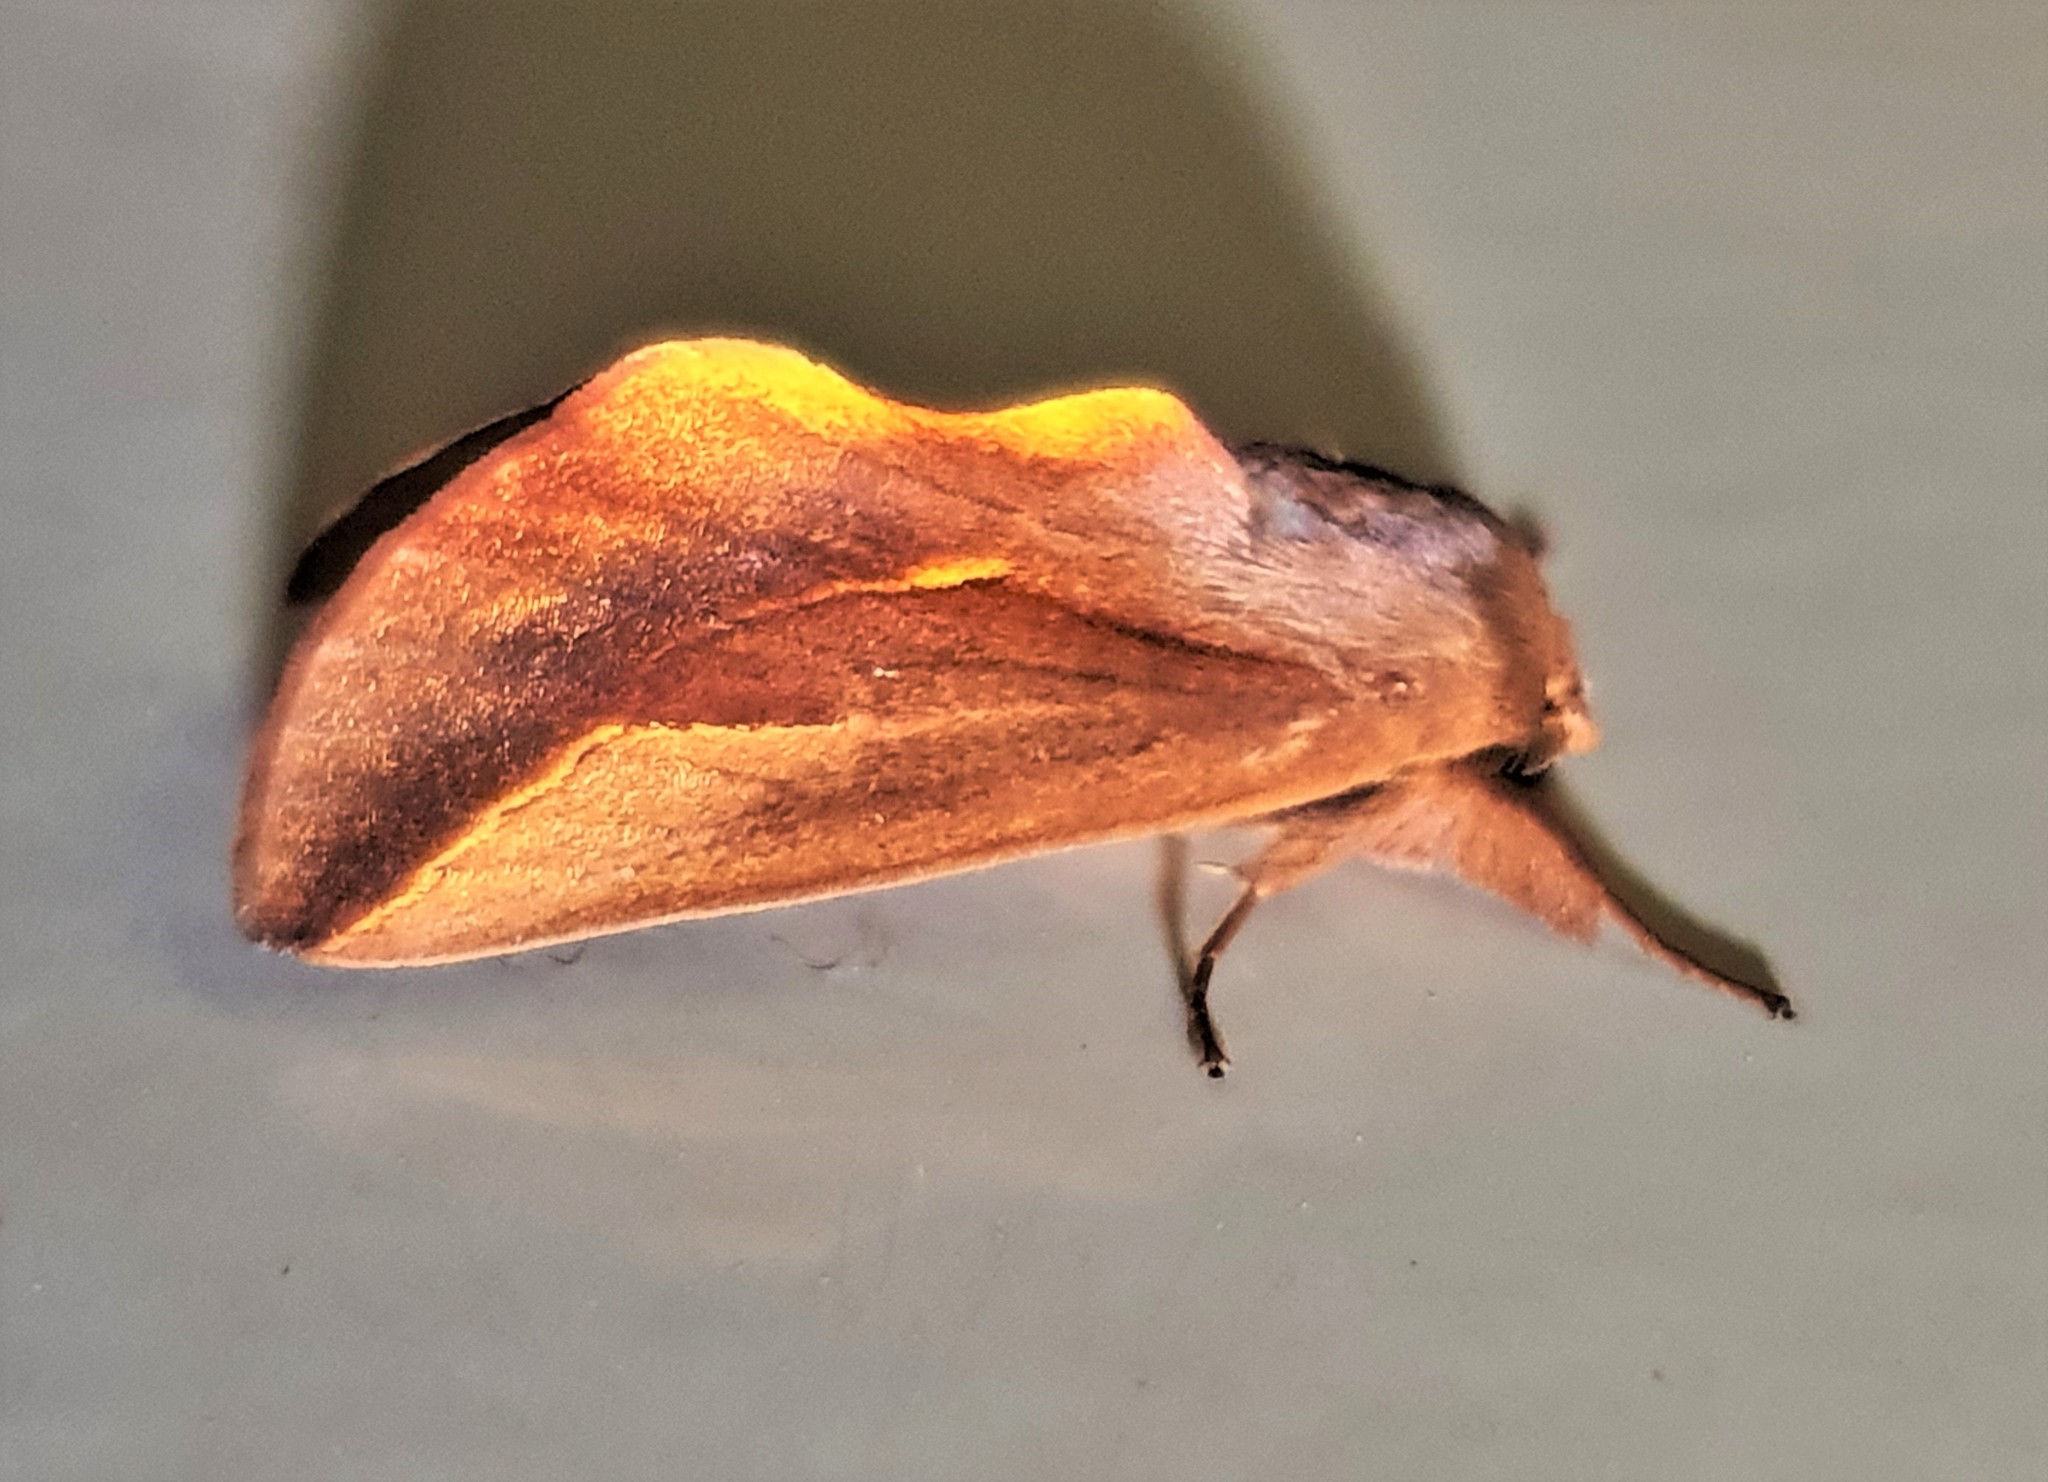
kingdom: Animalia
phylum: Arthropoda
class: Insecta
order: Lepidoptera
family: Notodontidae
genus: Hemiceras
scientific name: Hemiceras emerillonarum
